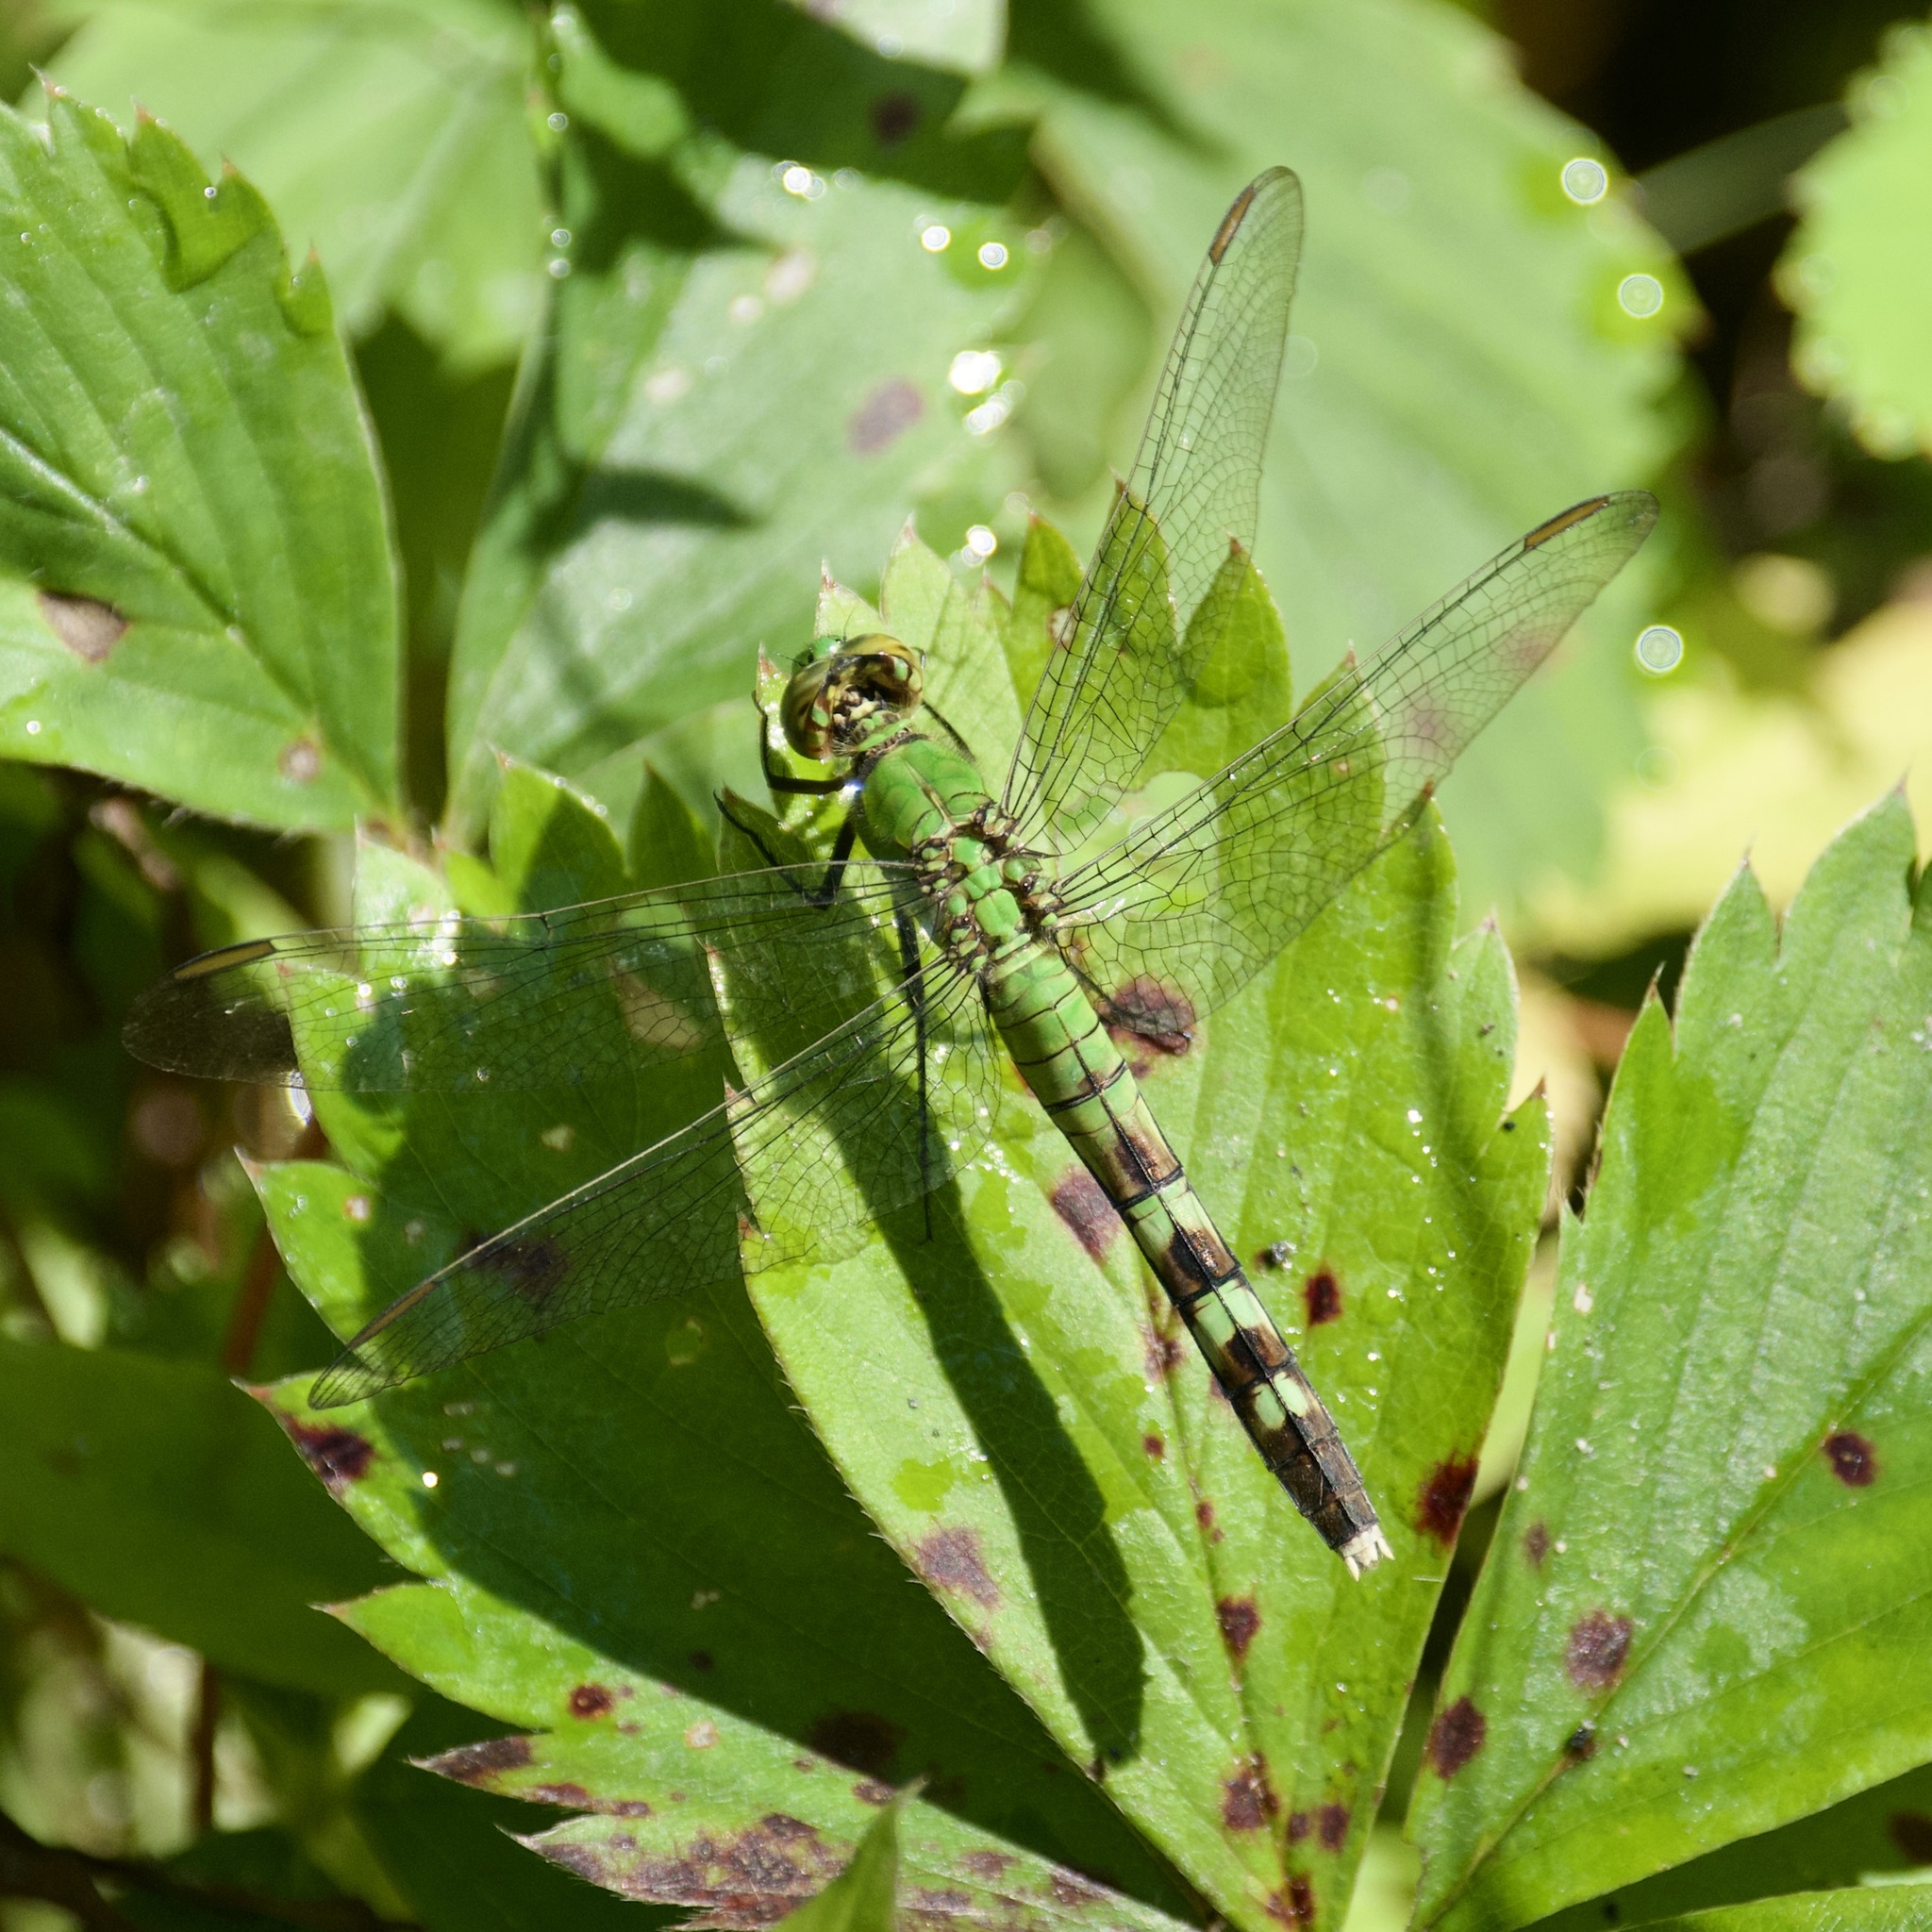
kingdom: Animalia
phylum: Arthropoda
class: Insecta
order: Odonata
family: Libellulidae
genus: Erythemis
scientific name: Erythemis simplicicollis
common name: Eastern pondhawk
